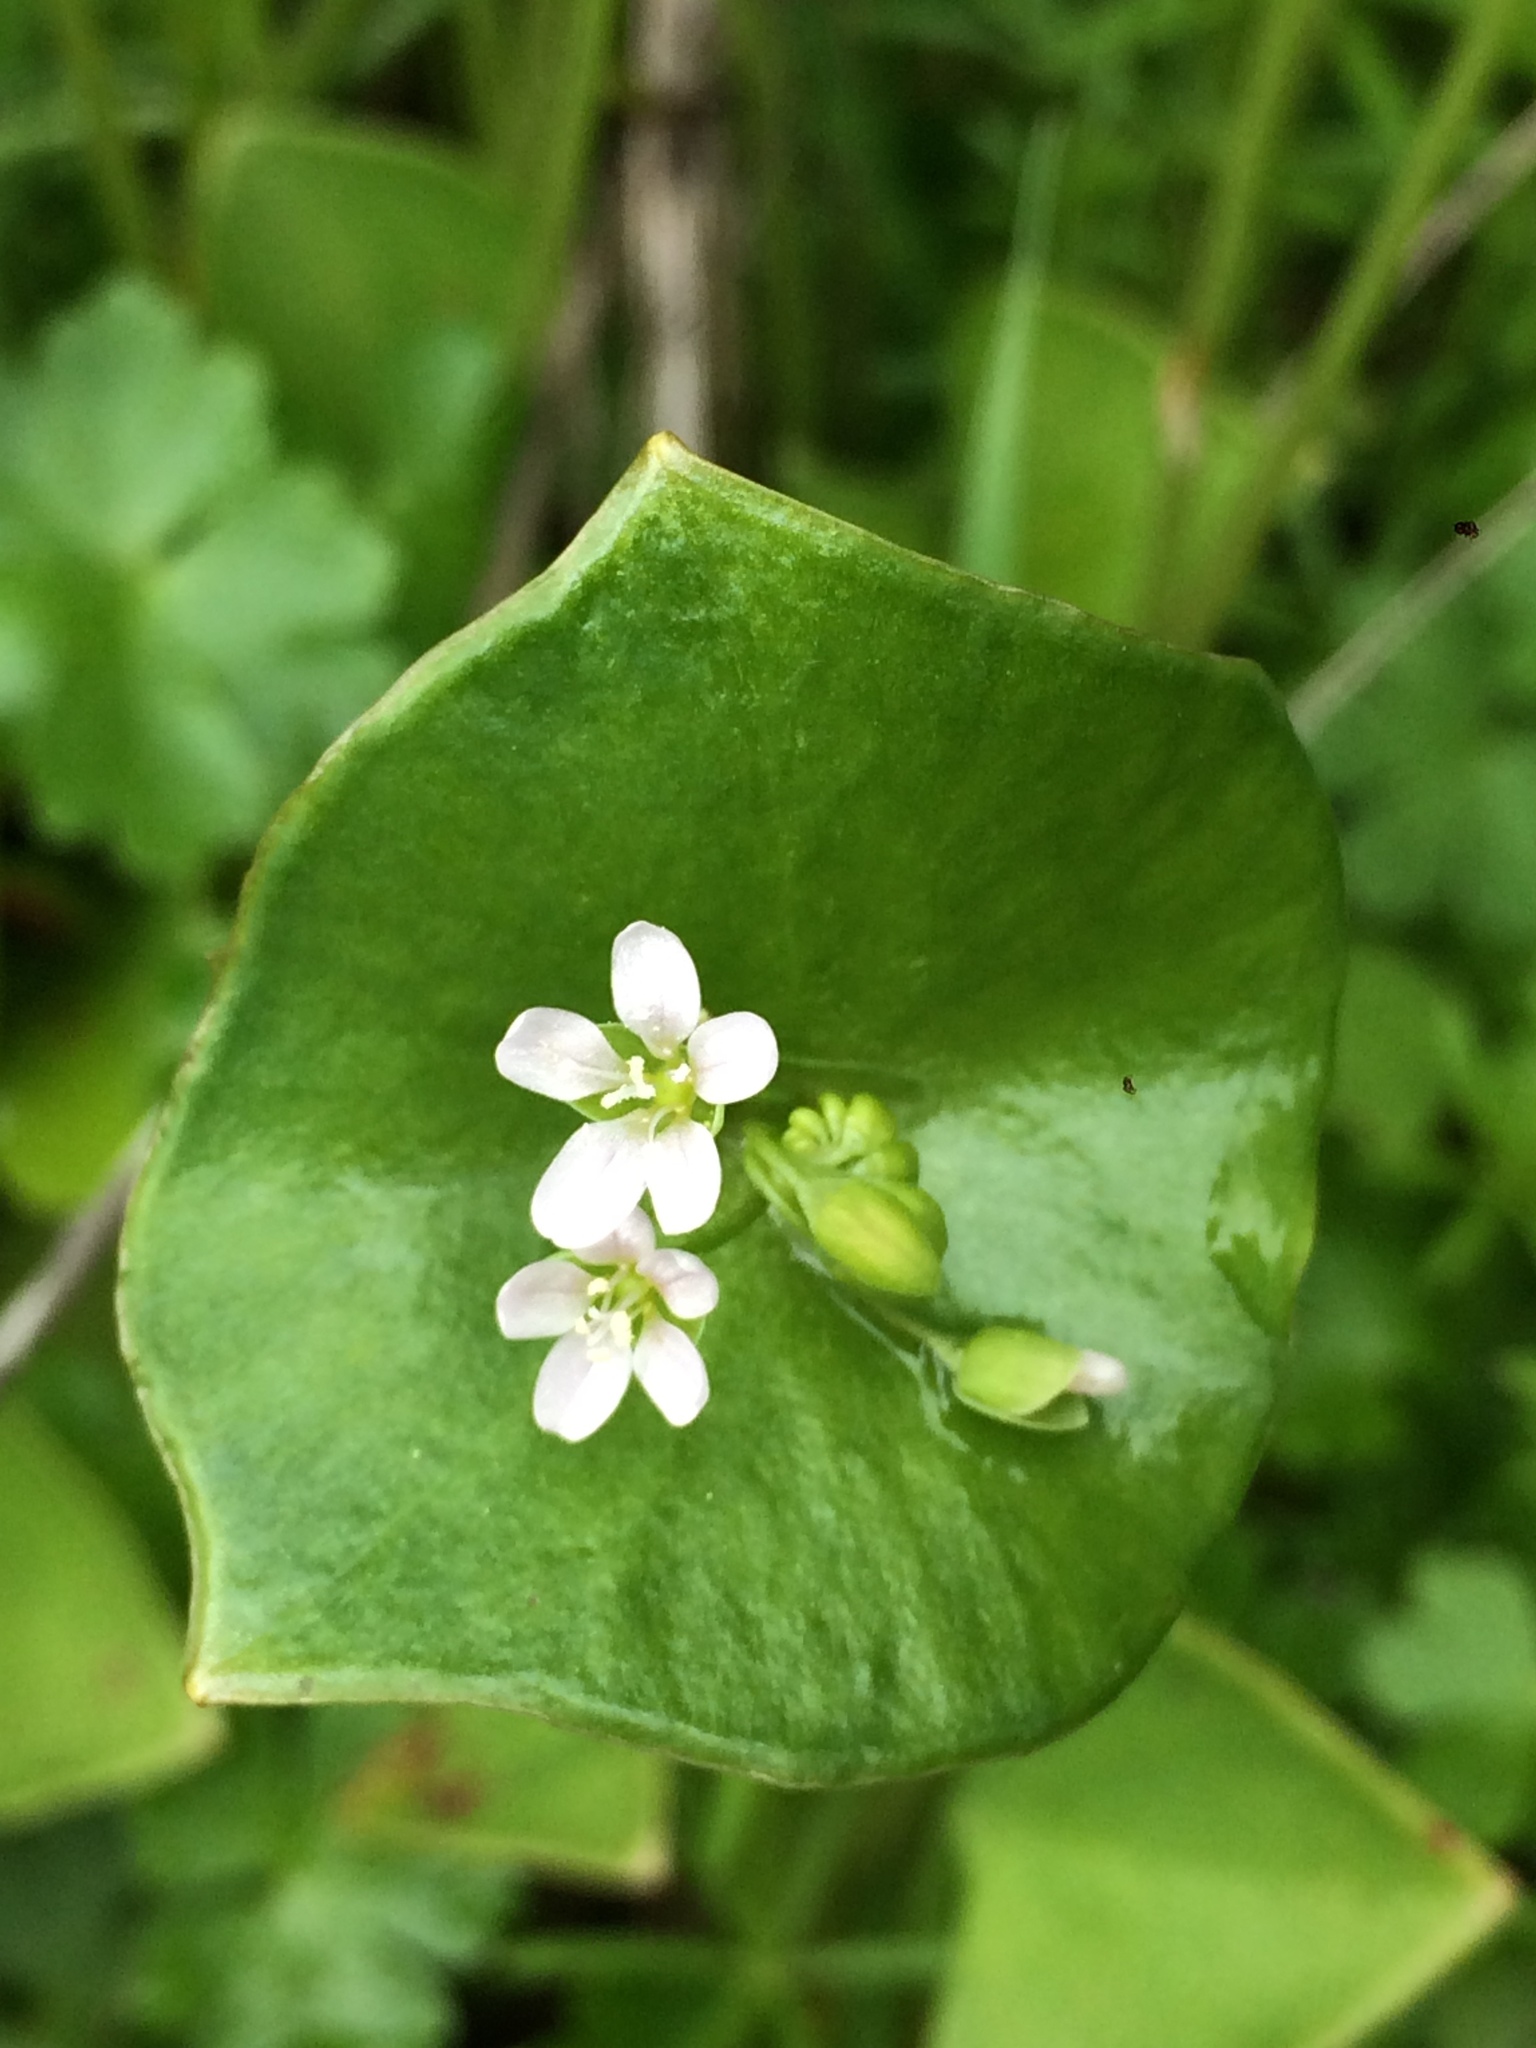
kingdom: Plantae
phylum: Tracheophyta
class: Magnoliopsida
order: Caryophyllales
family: Montiaceae
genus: Claytonia
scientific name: Claytonia perfoliata
